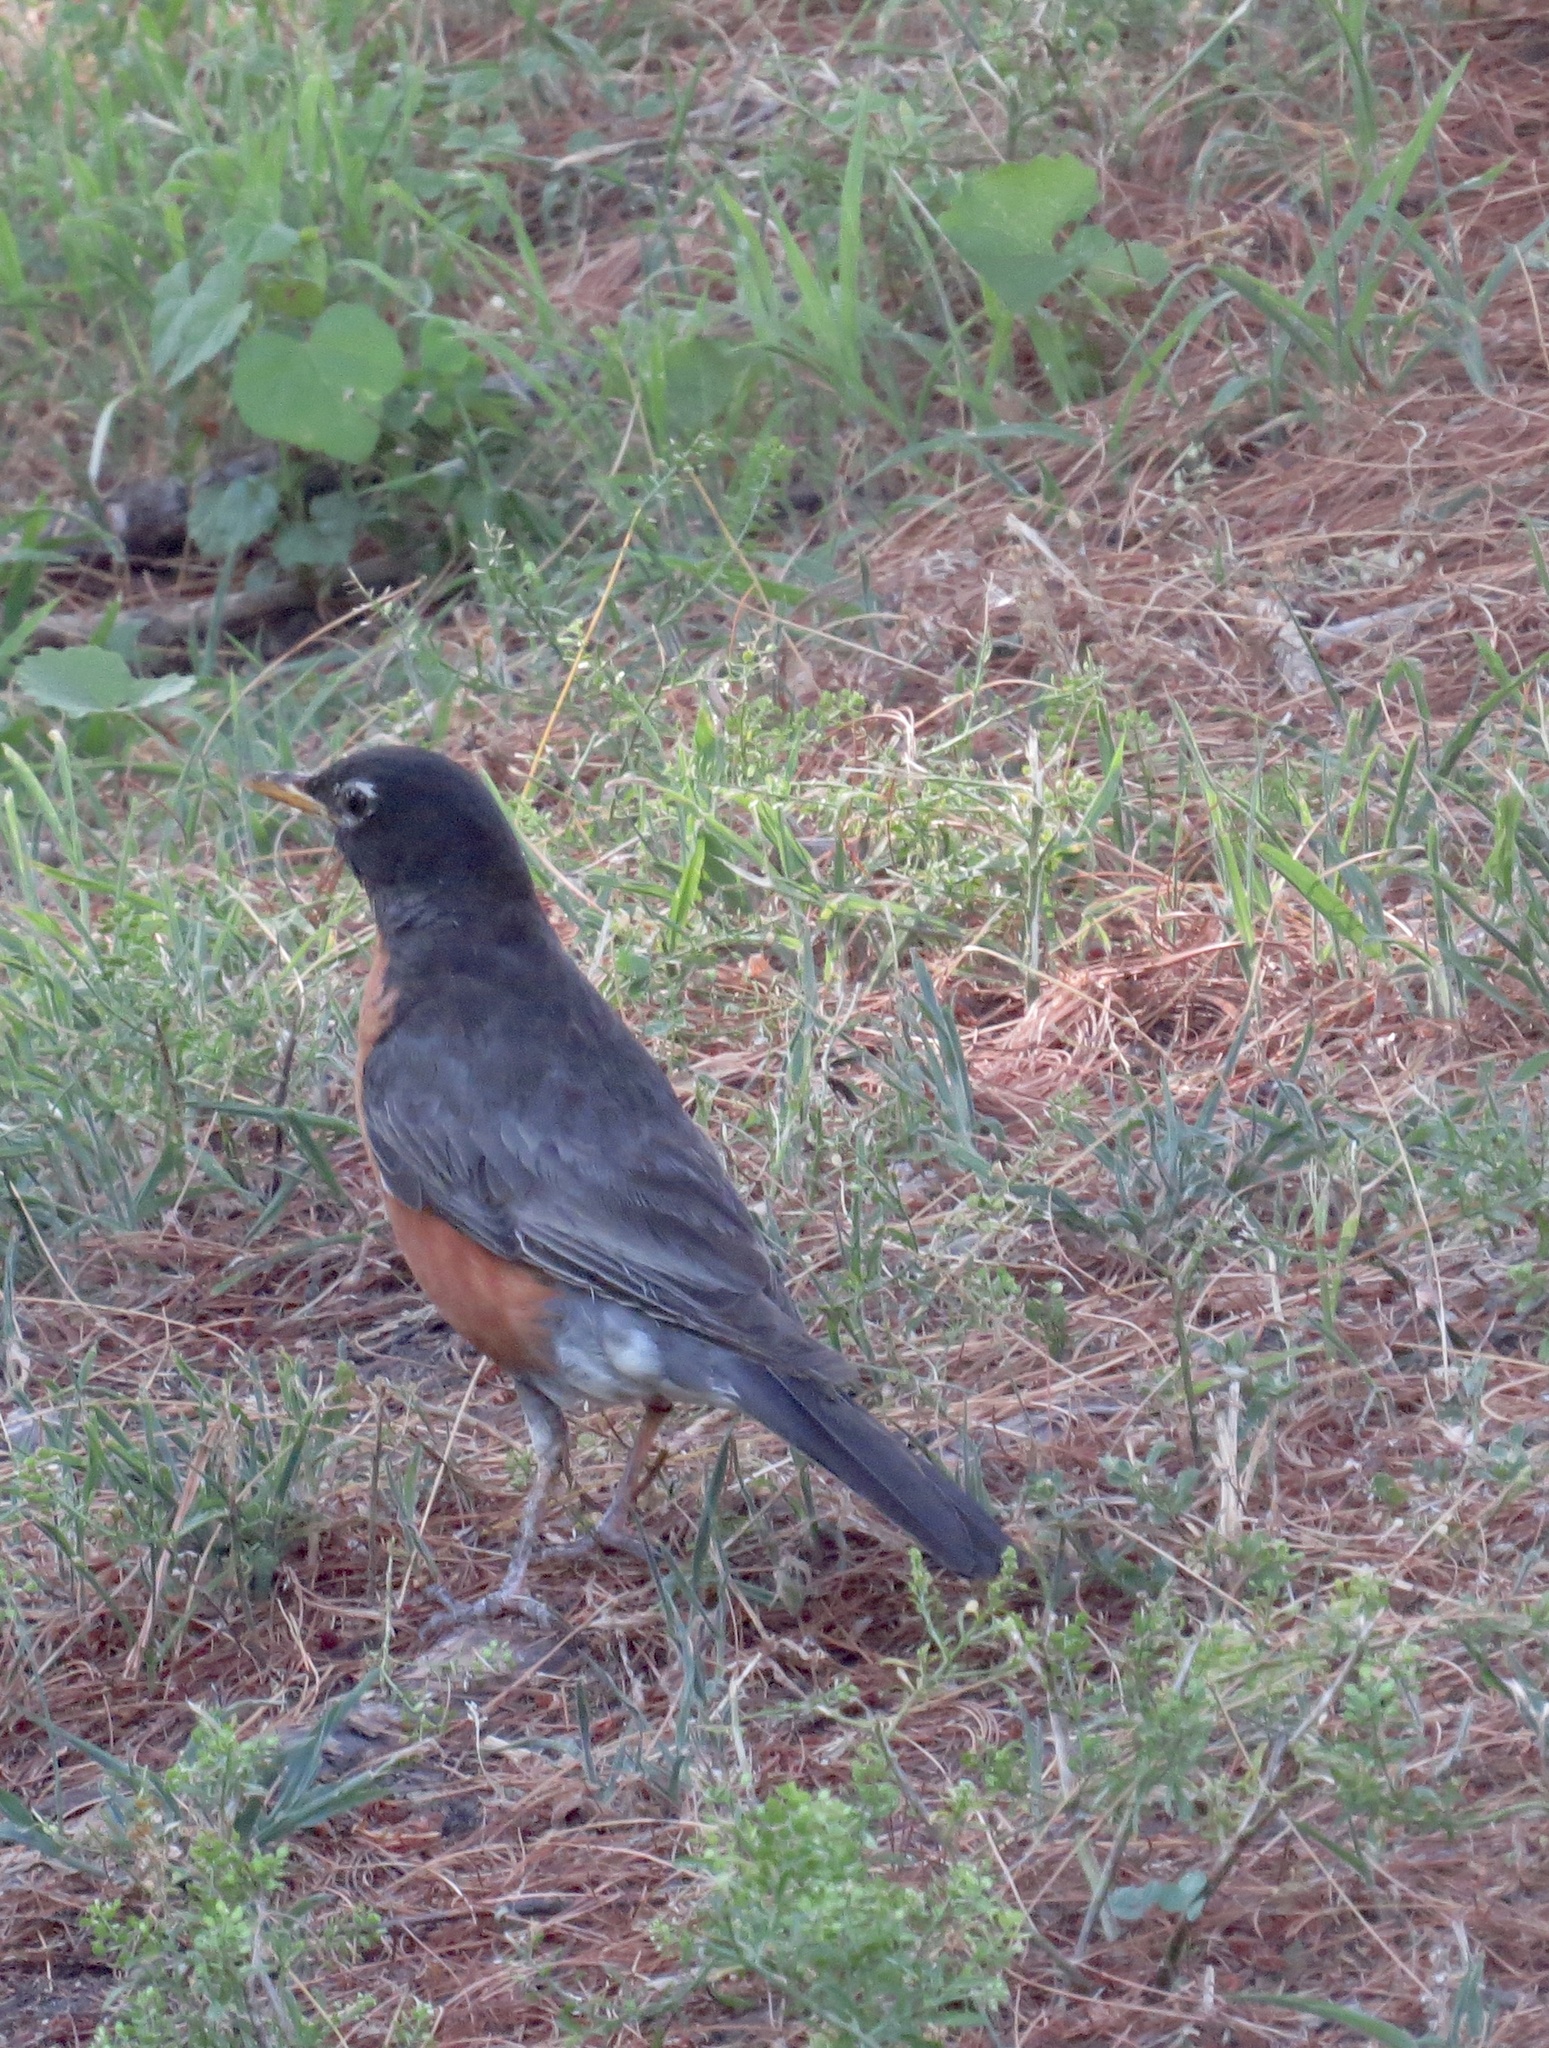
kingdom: Animalia
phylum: Chordata
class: Aves
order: Passeriformes
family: Turdidae
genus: Turdus
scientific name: Turdus migratorius
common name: American robin
